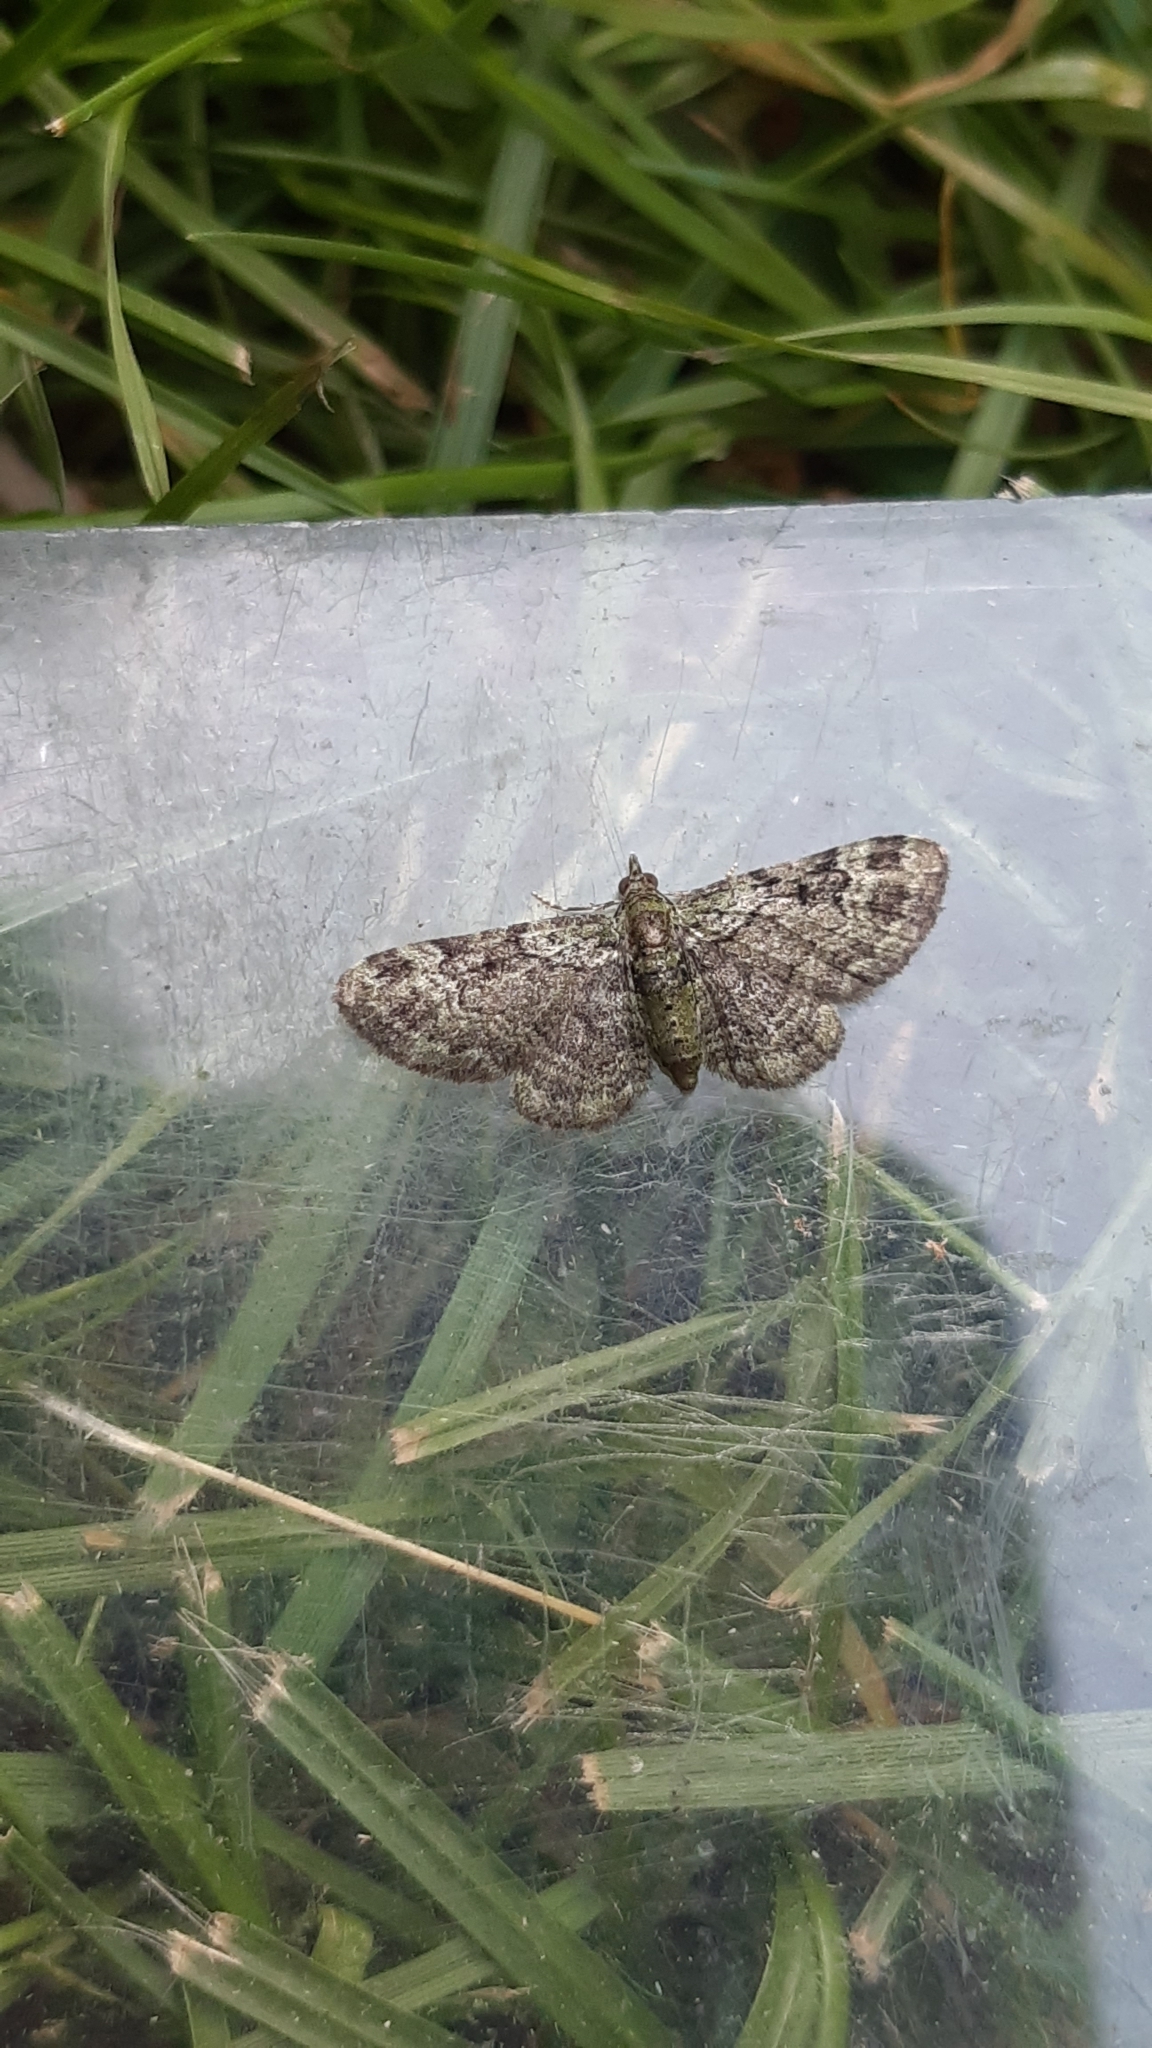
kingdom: Animalia
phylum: Arthropoda
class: Insecta
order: Lepidoptera
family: Geometridae
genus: Pasiphila
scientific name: Pasiphila rectangulata
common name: Green pug
